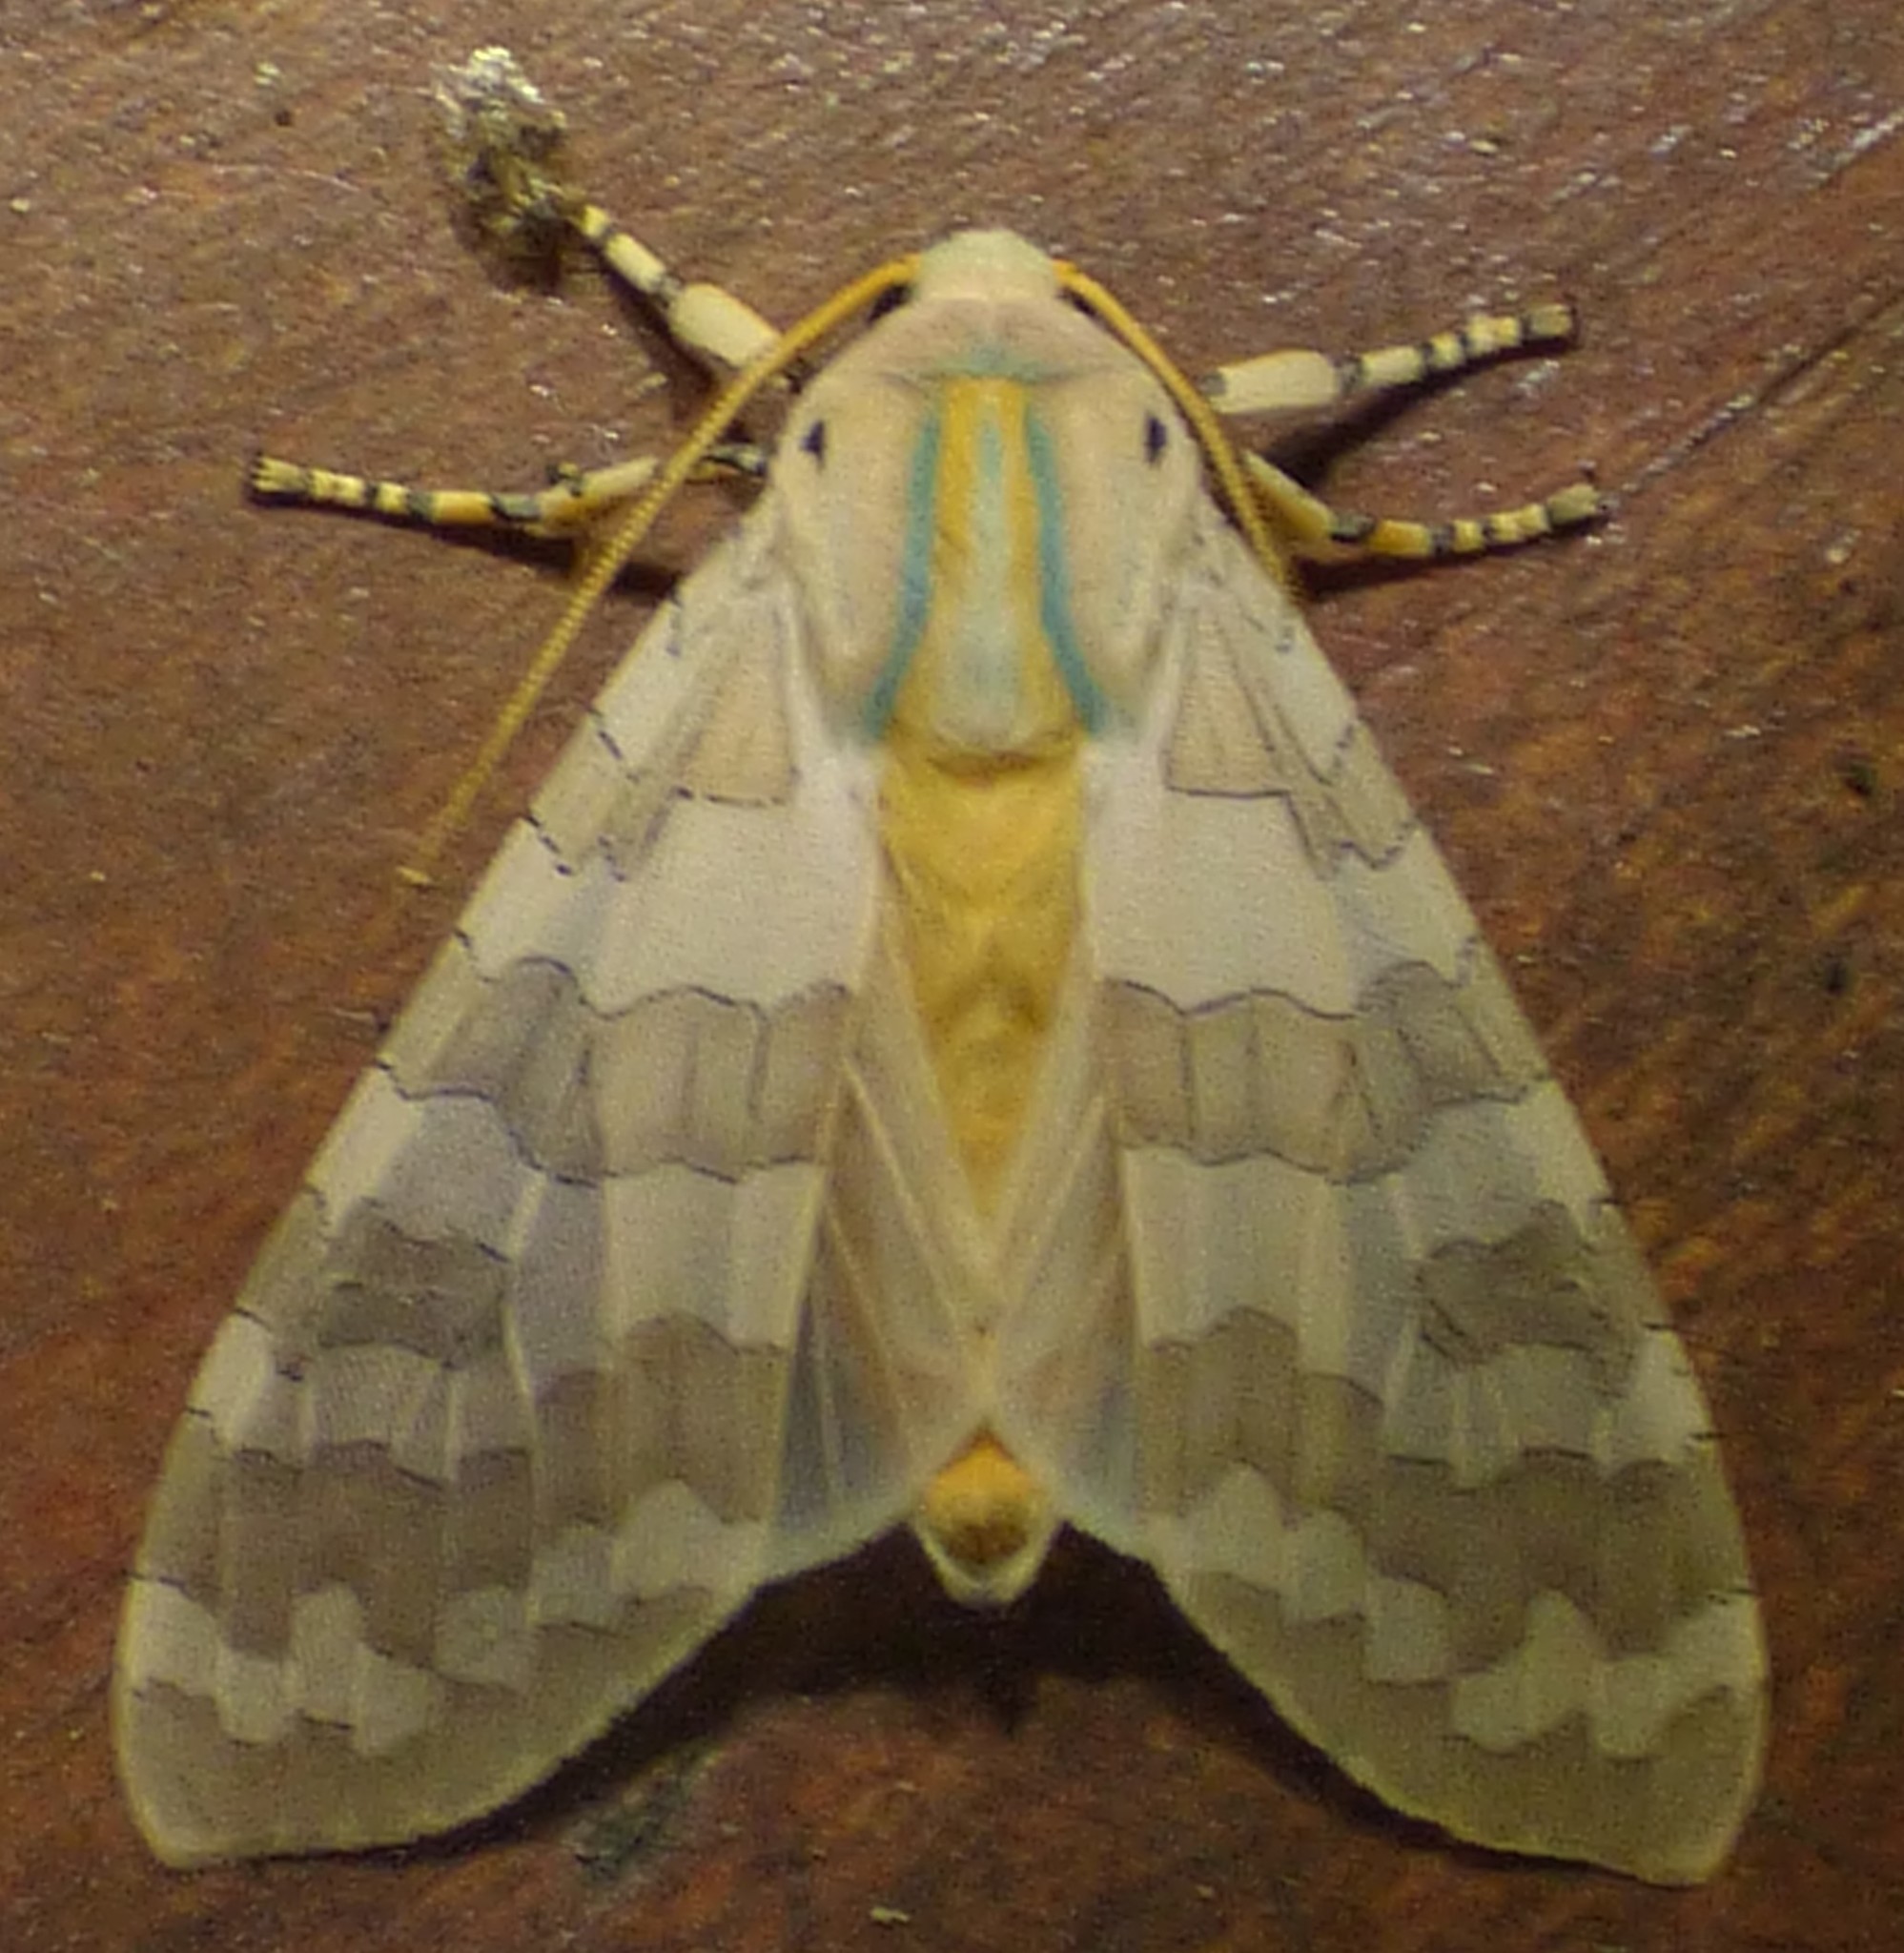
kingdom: Animalia
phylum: Arthropoda
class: Insecta
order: Lepidoptera
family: Erebidae
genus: Halysidota
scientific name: Halysidota
